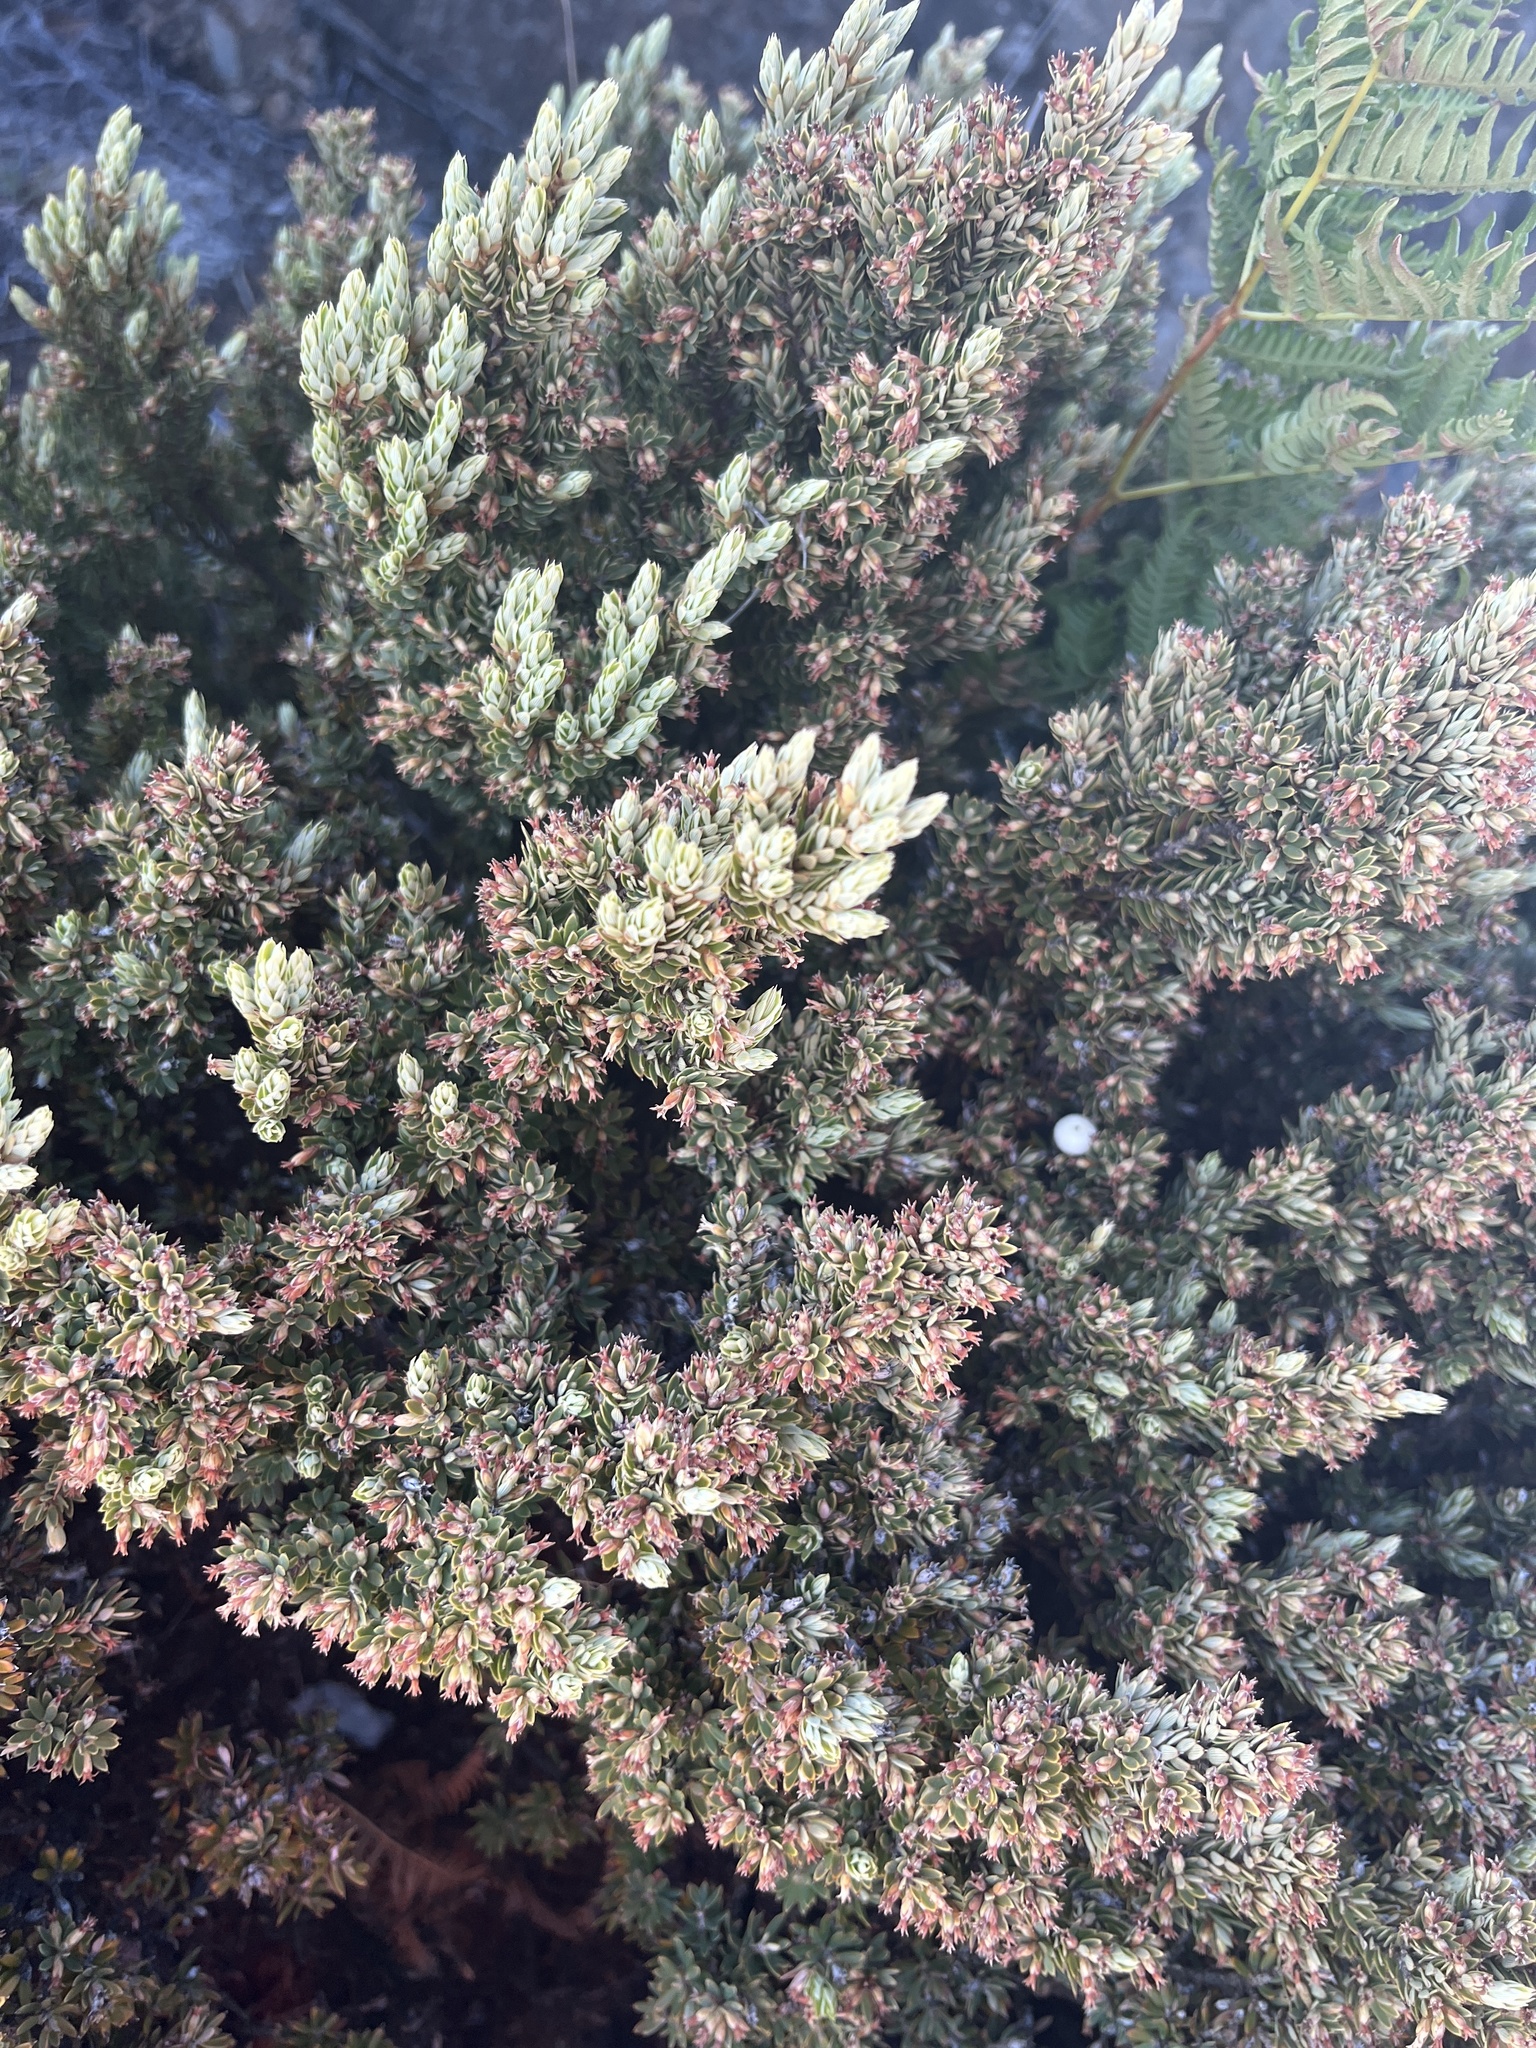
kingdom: Plantae
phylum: Tracheophyta
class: Magnoliopsida
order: Ericales
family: Ericaceae
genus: Leptecophylla
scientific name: Leptecophylla tameiameiae
